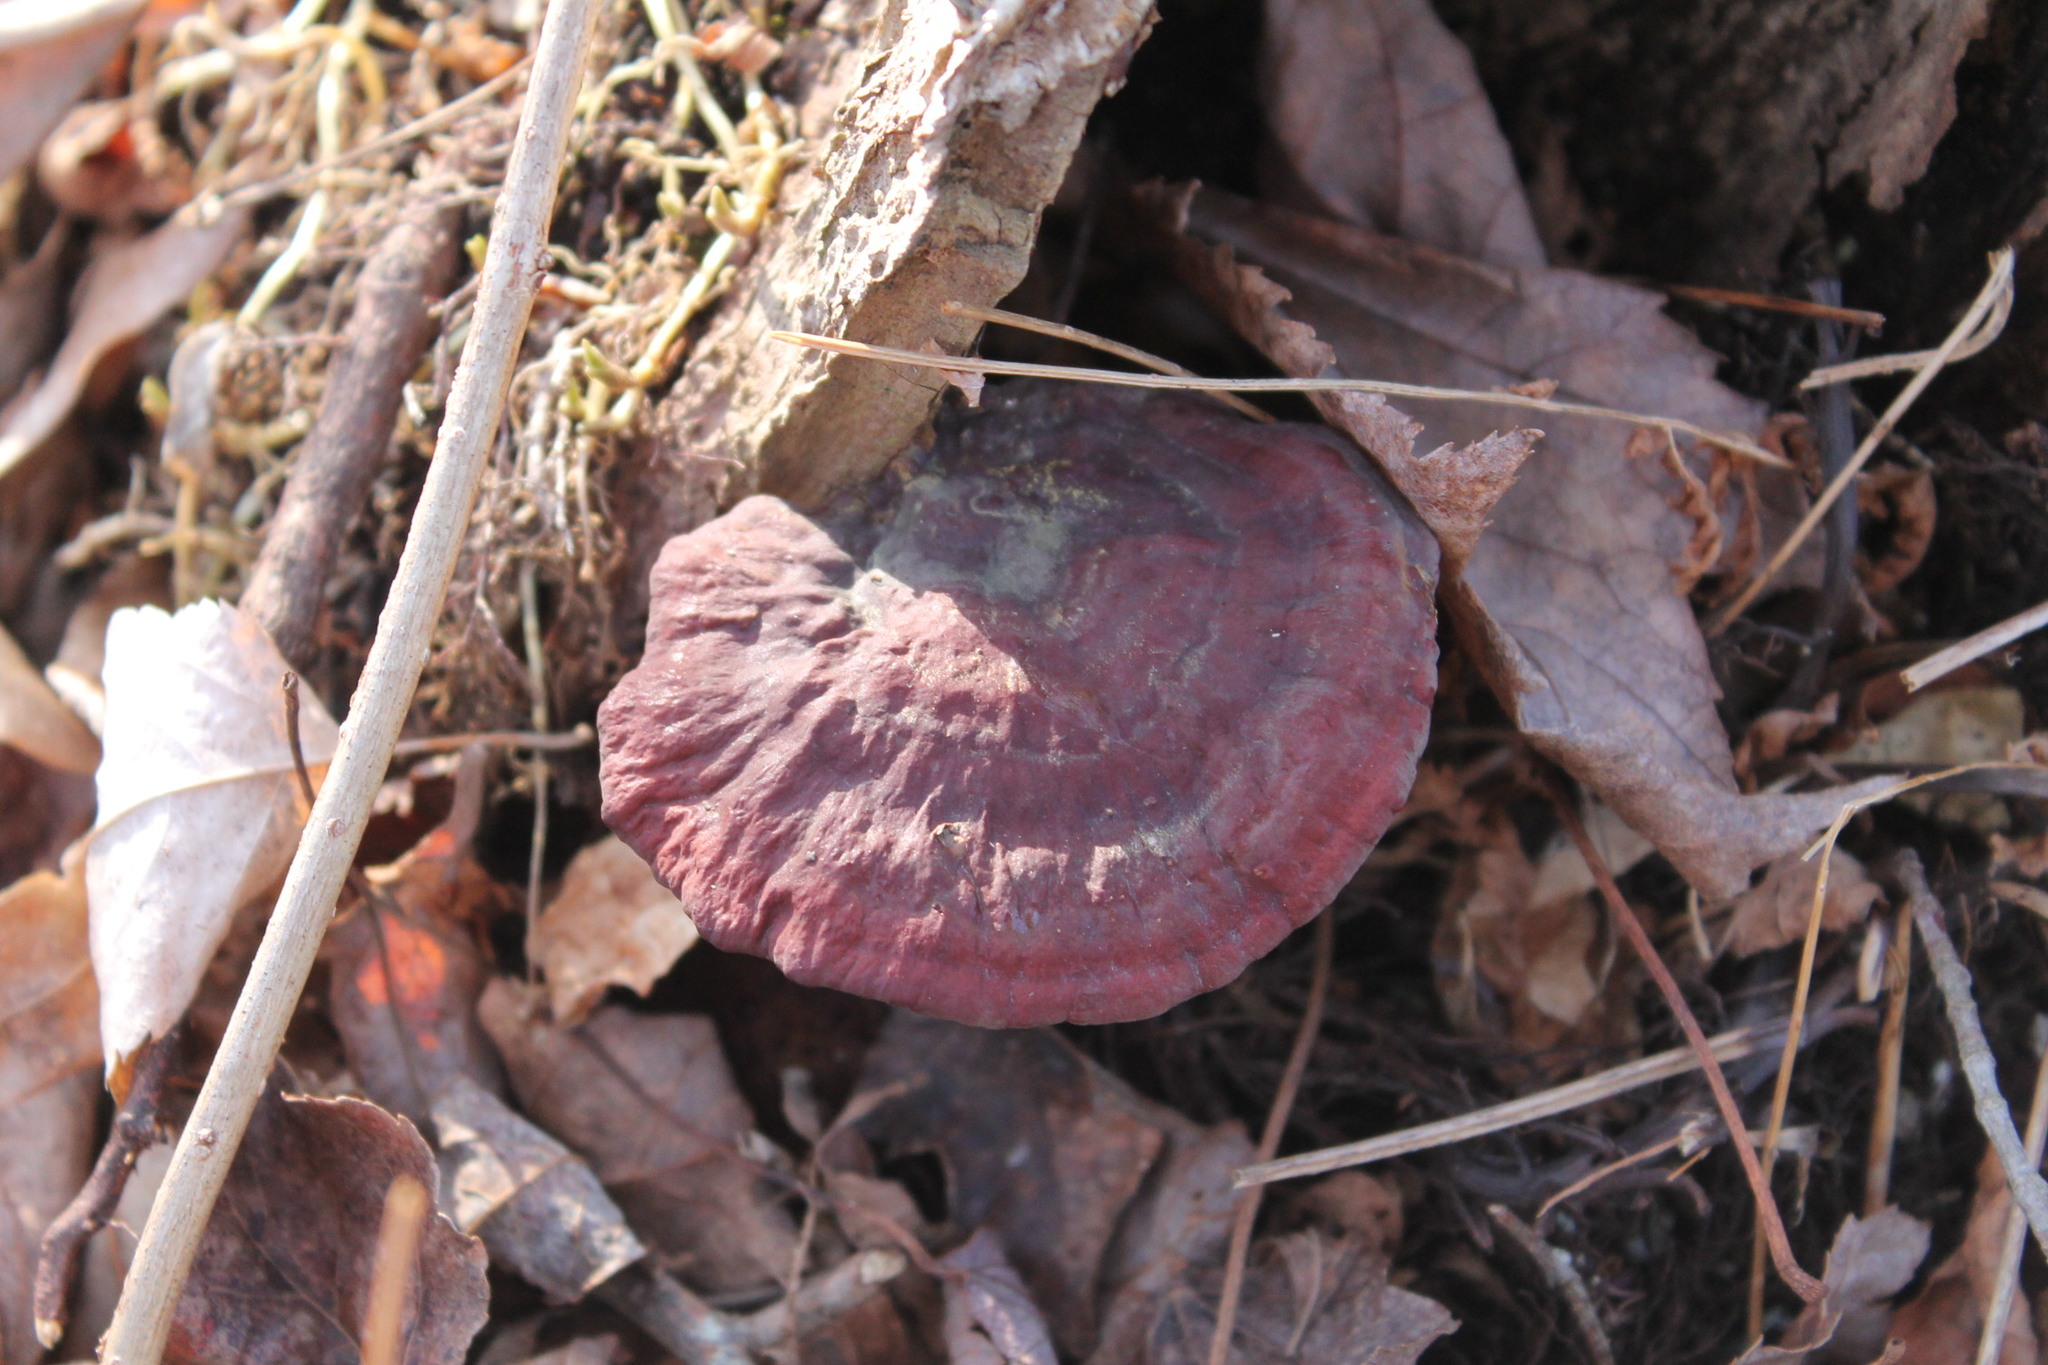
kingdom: Fungi
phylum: Basidiomycota
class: Agaricomycetes
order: Polyporales
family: Polyporaceae
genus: Ganoderma
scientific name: Ganoderma curtisii
